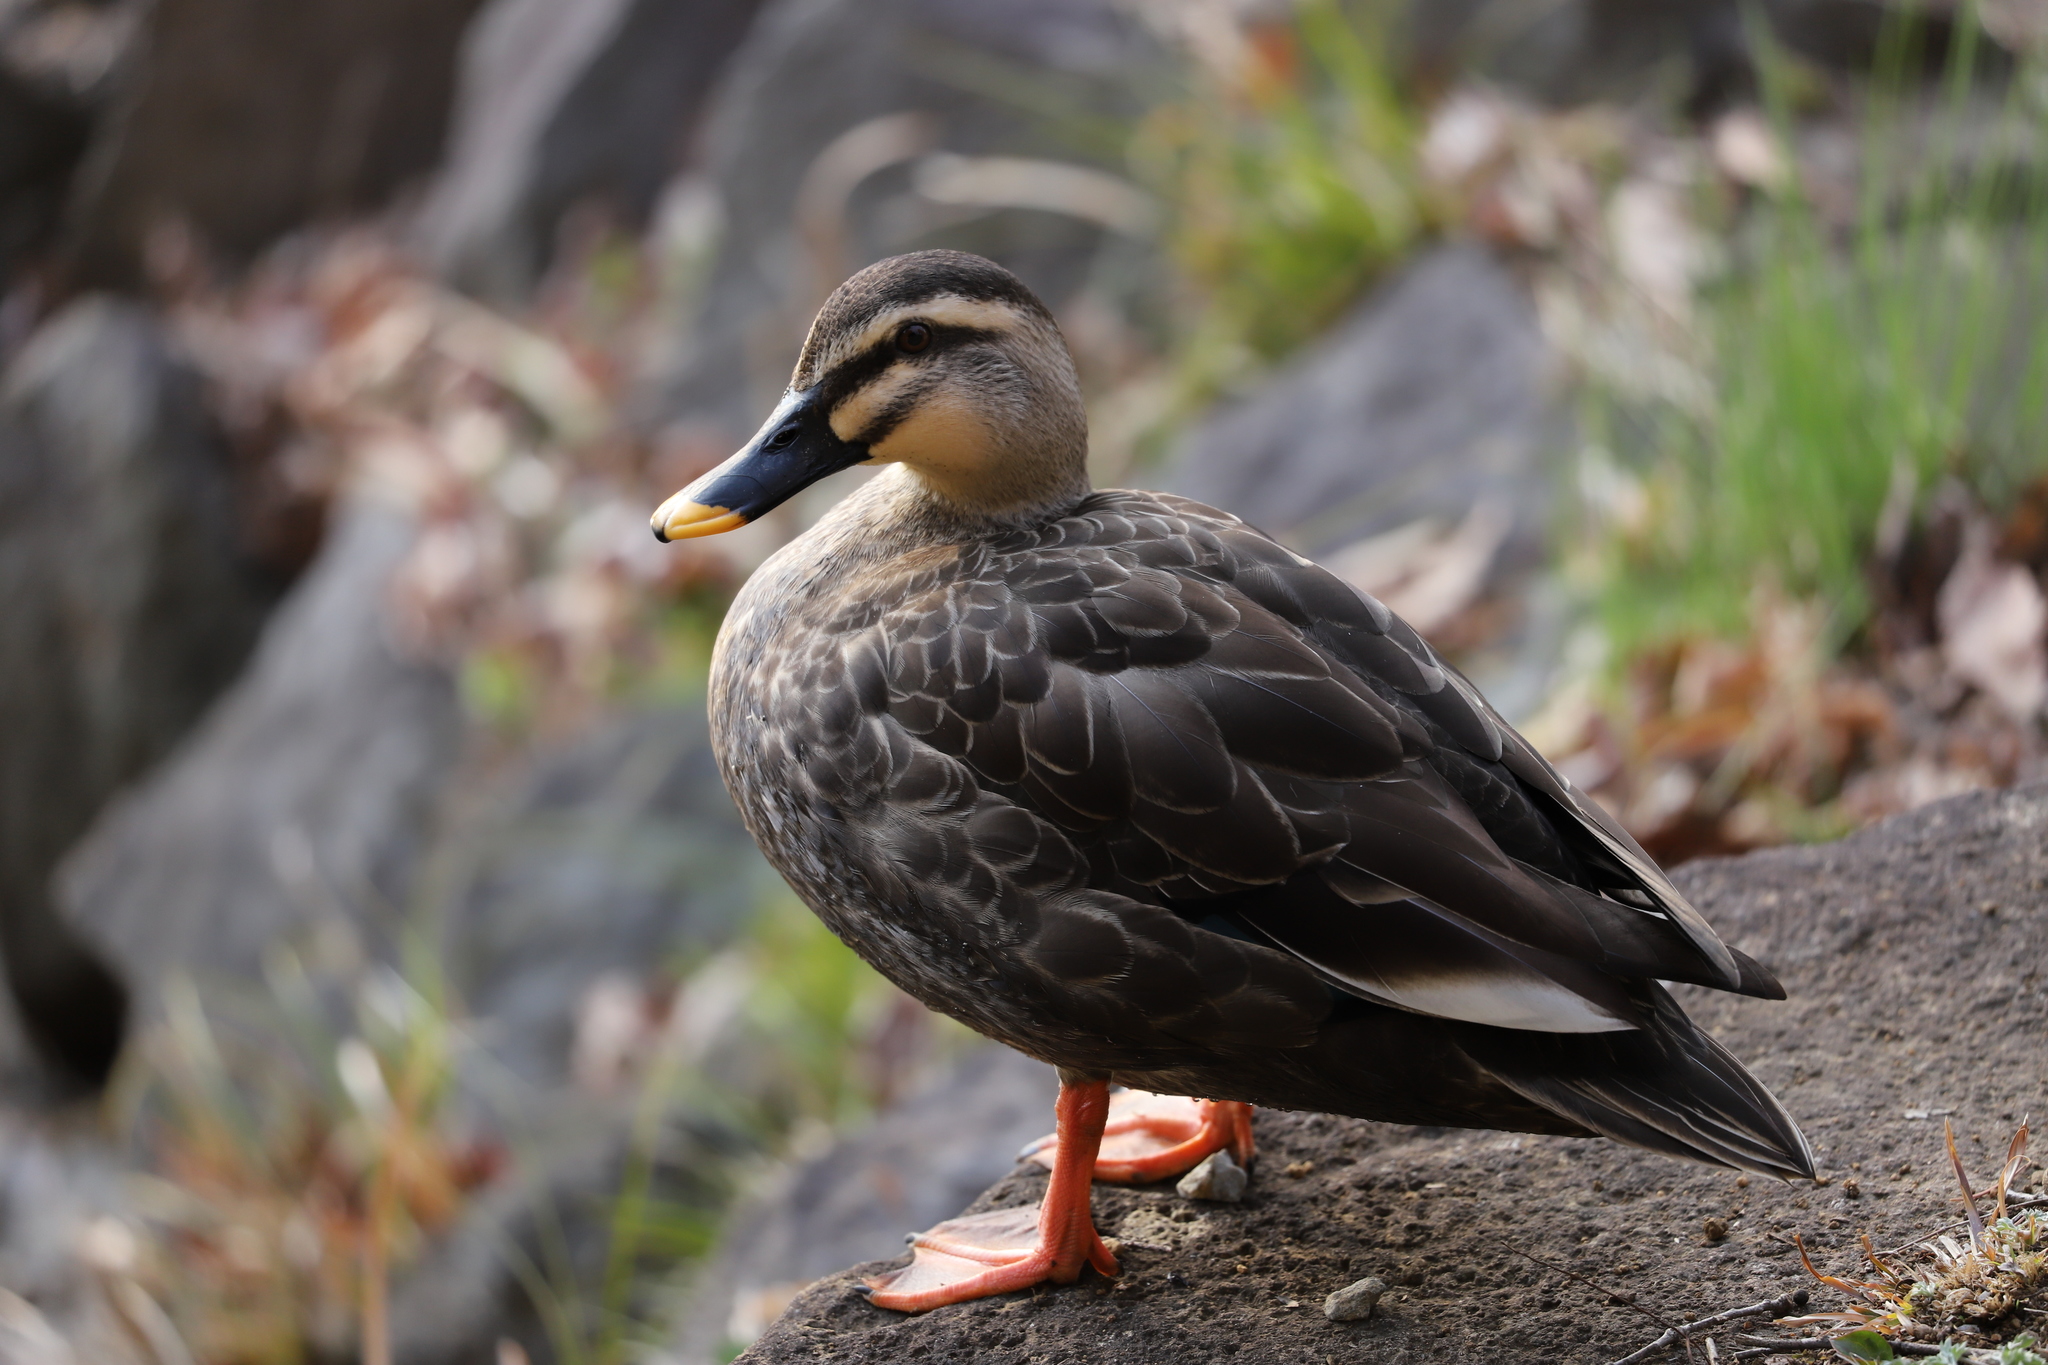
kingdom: Animalia
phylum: Chordata
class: Aves
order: Anseriformes
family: Anatidae
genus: Anas
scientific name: Anas zonorhyncha
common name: Eastern spot-billed duck
